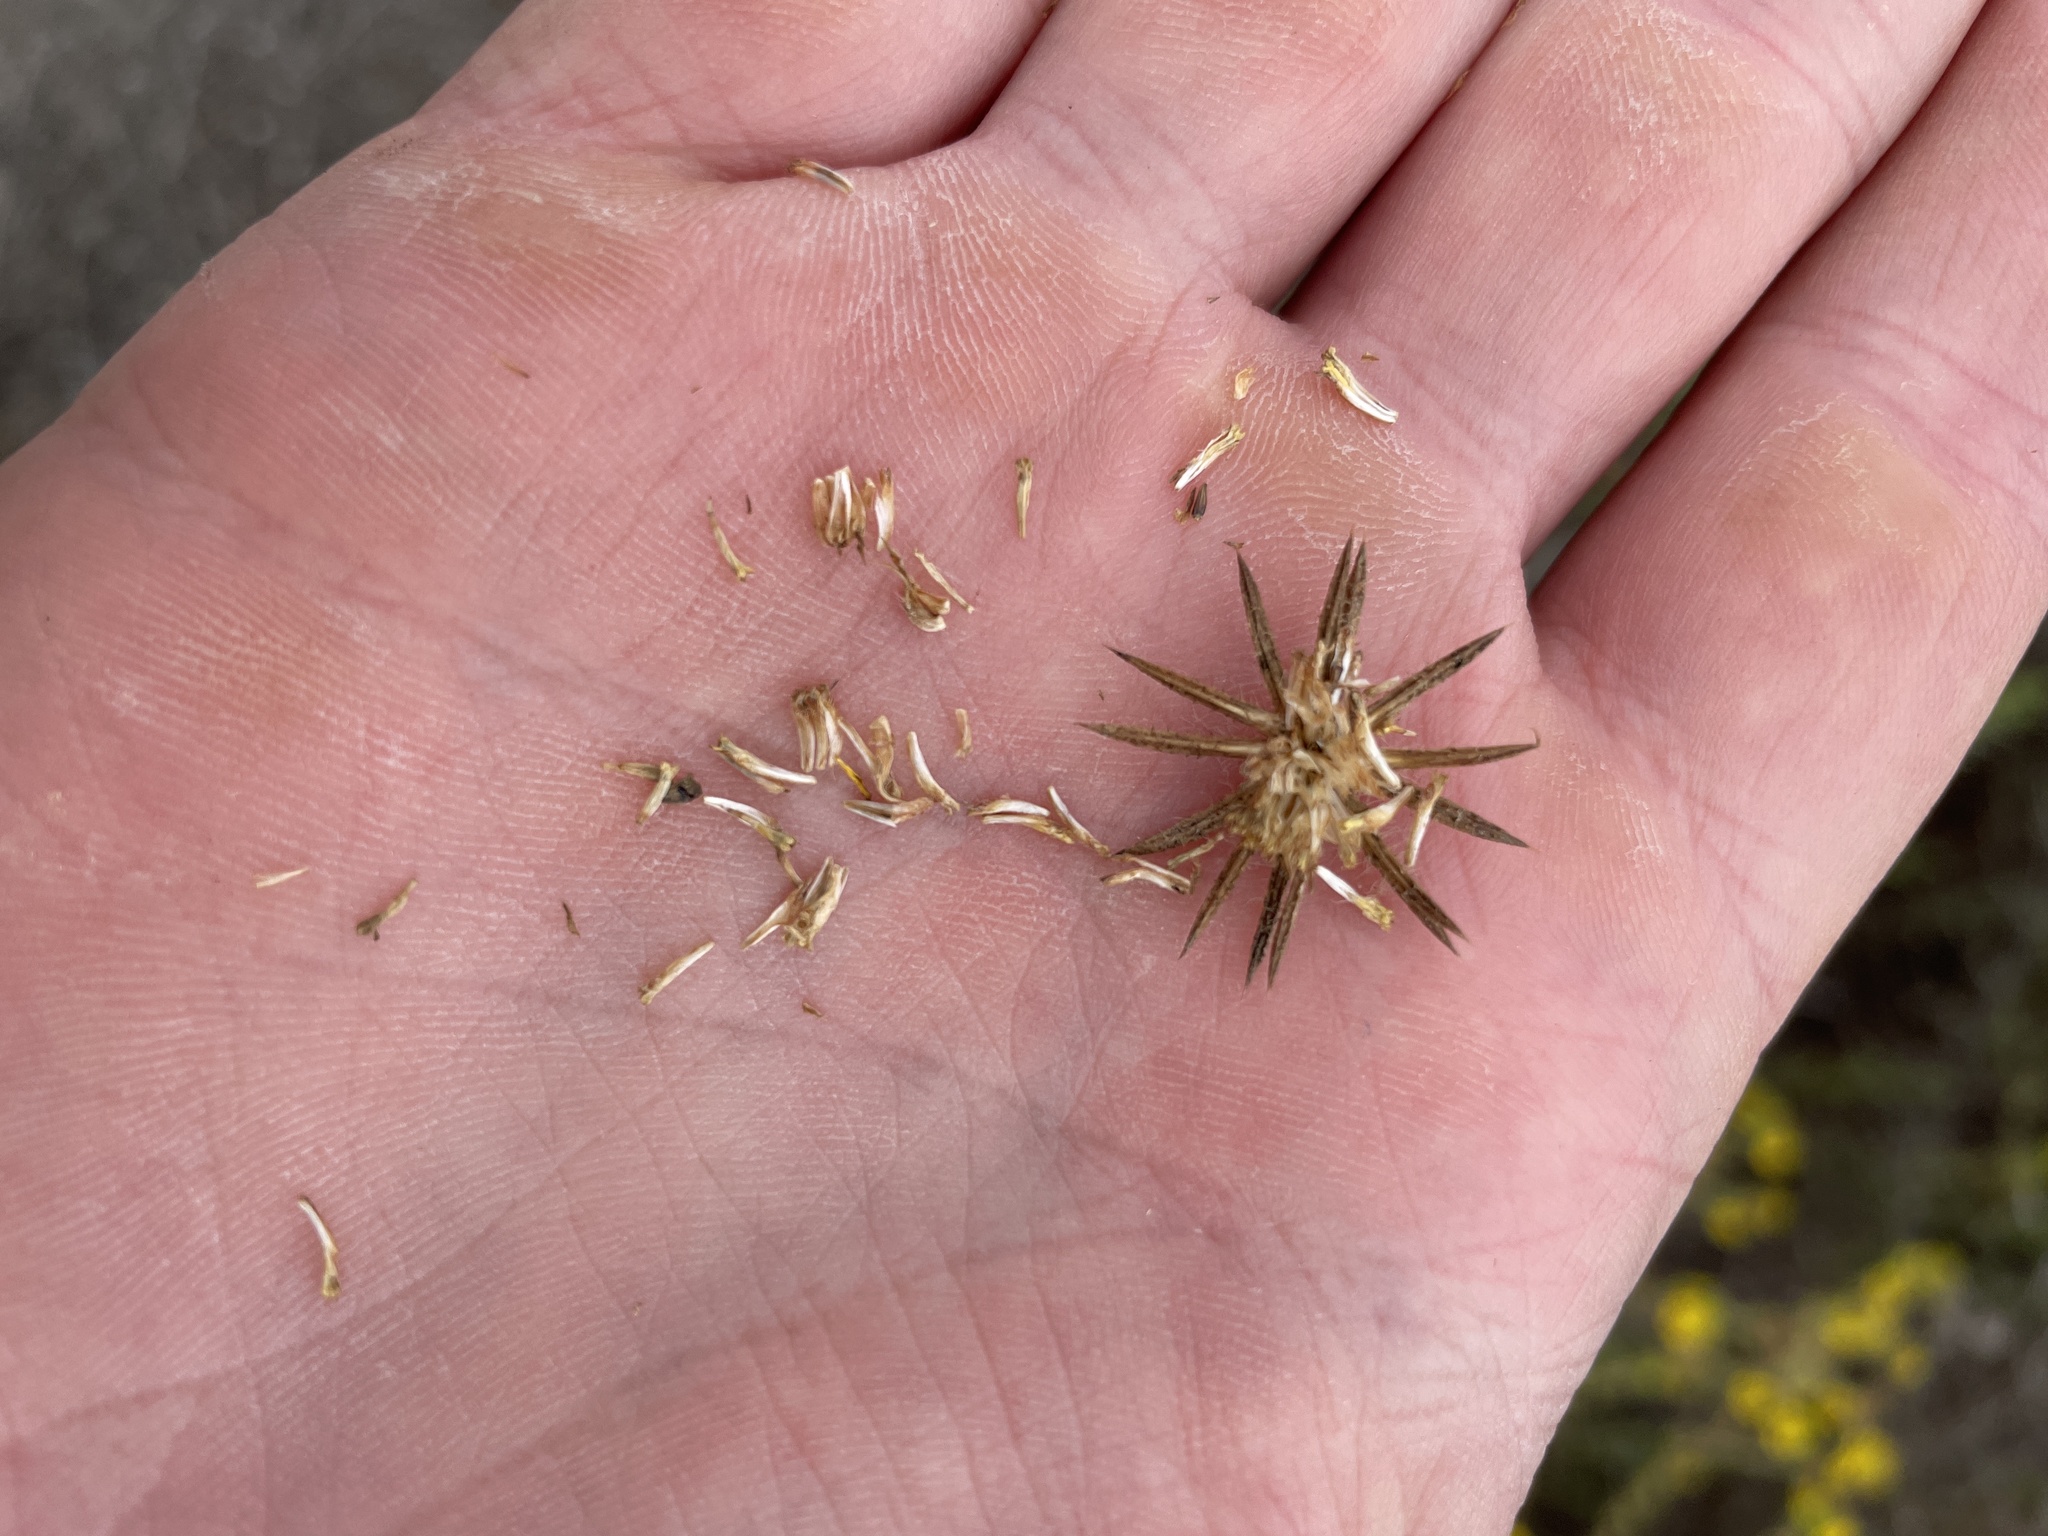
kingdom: Plantae
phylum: Tracheophyta
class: Magnoliopsida
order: Asterales
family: Asteraceae
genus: Centromadia
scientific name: Centromadia pungens
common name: Common spikeweed
